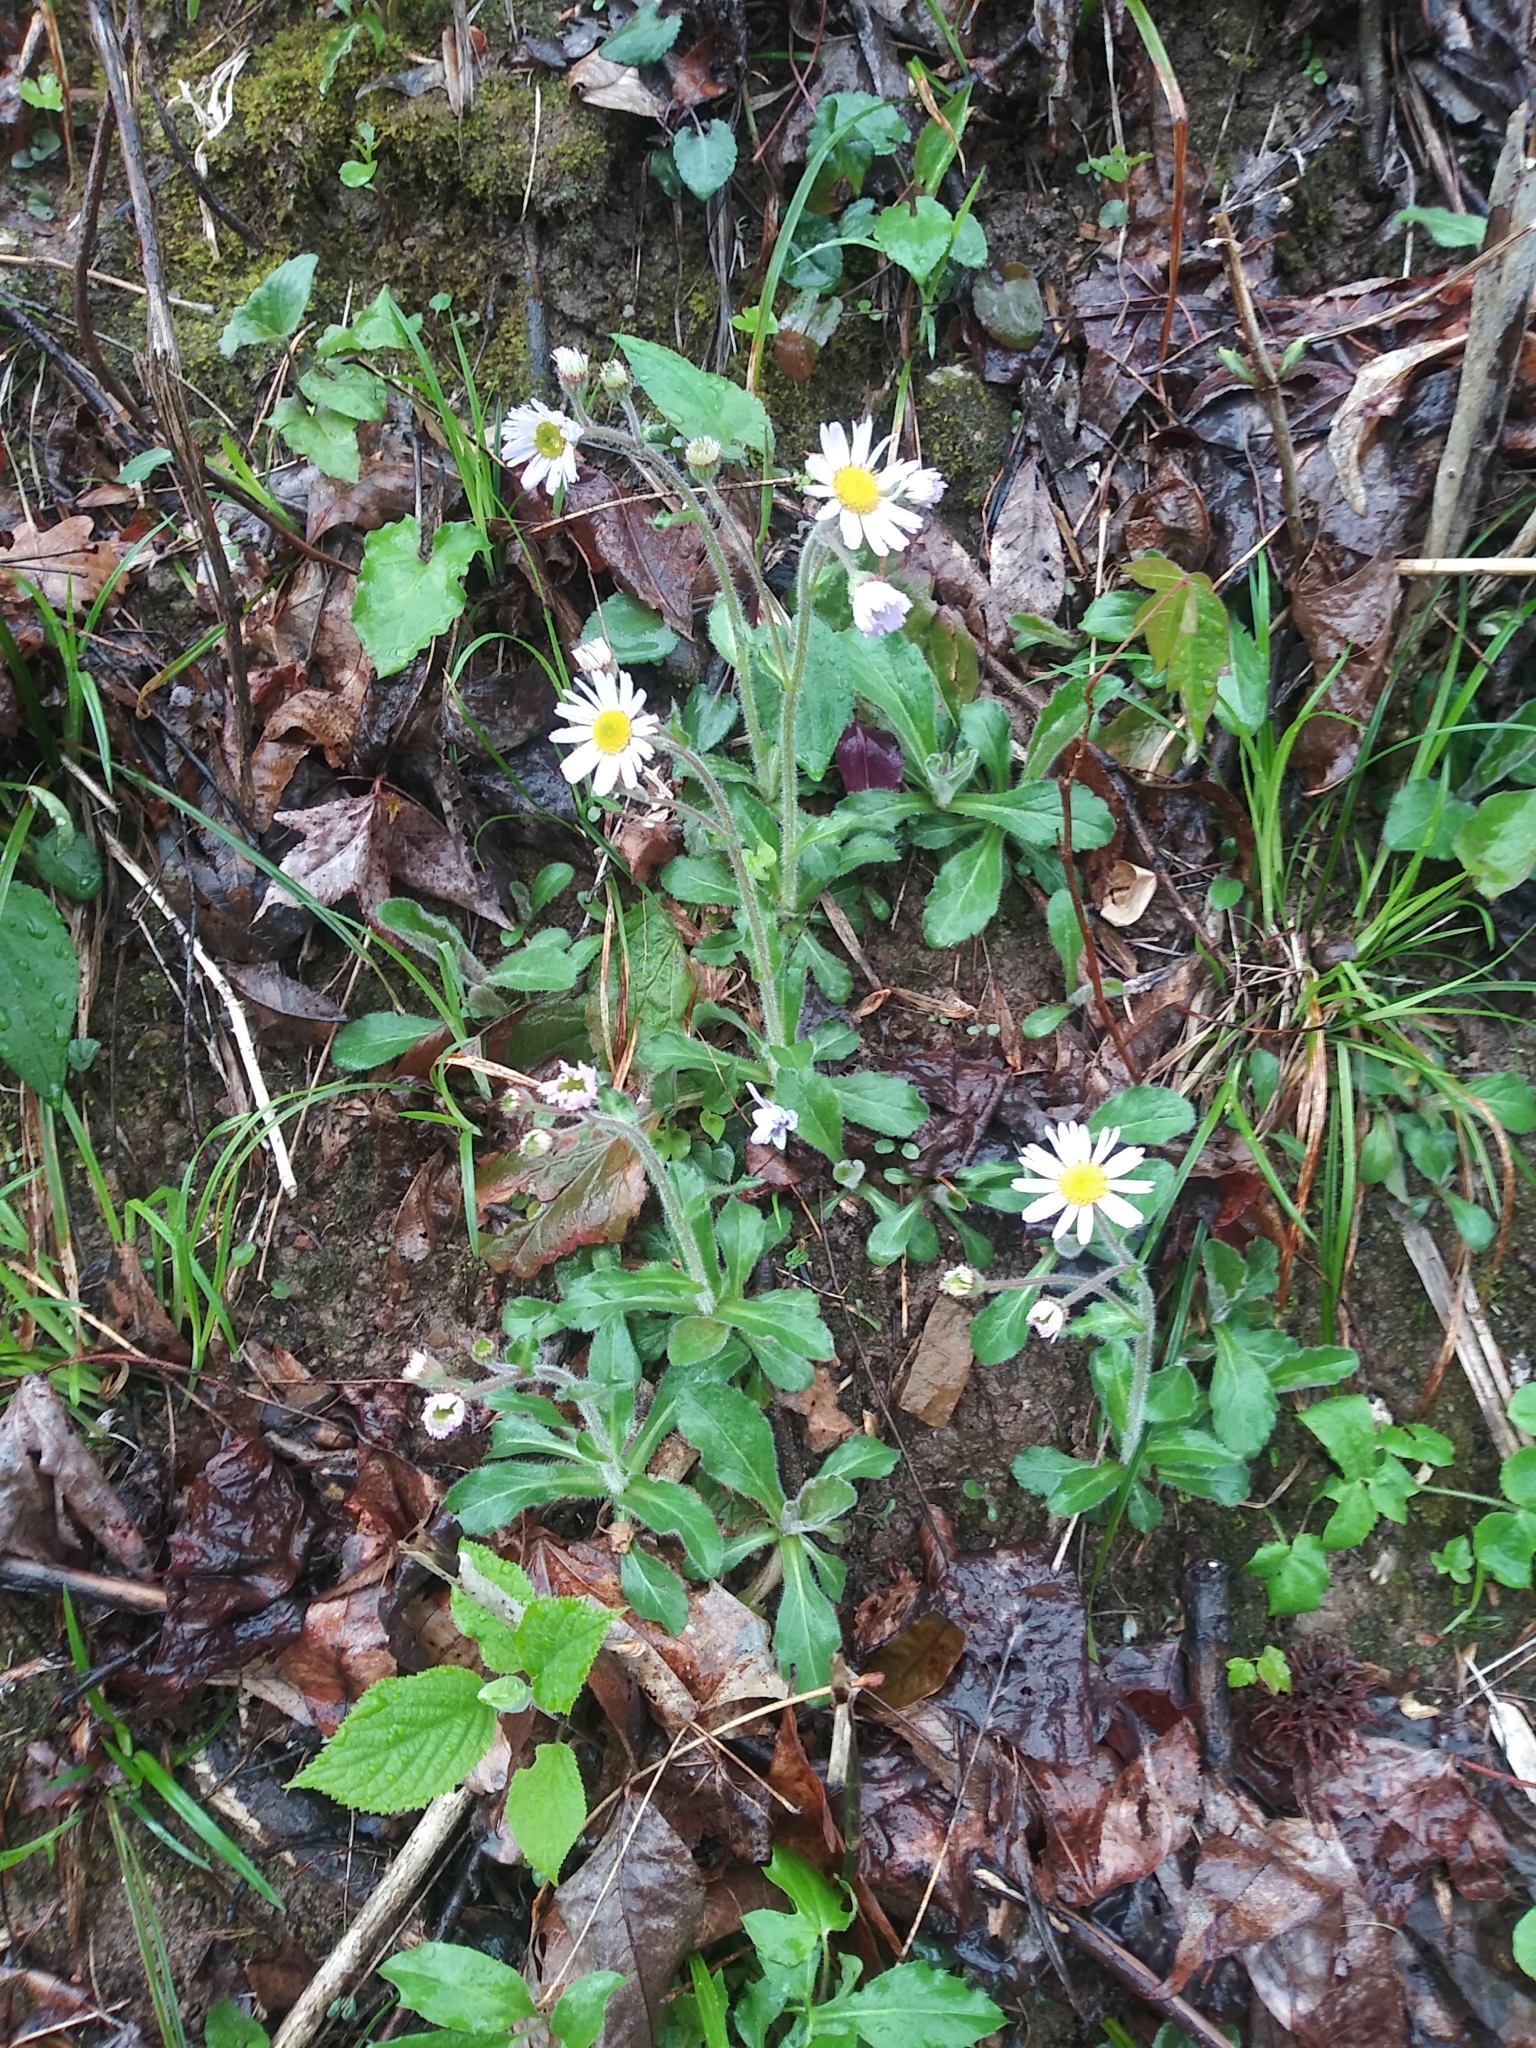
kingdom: Plantae
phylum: Tracheophyta
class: Magnoliopsida
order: Asterales
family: Asteraceae
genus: Erigeron
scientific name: Erigeron pulchellus
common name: Hairy fleabane
